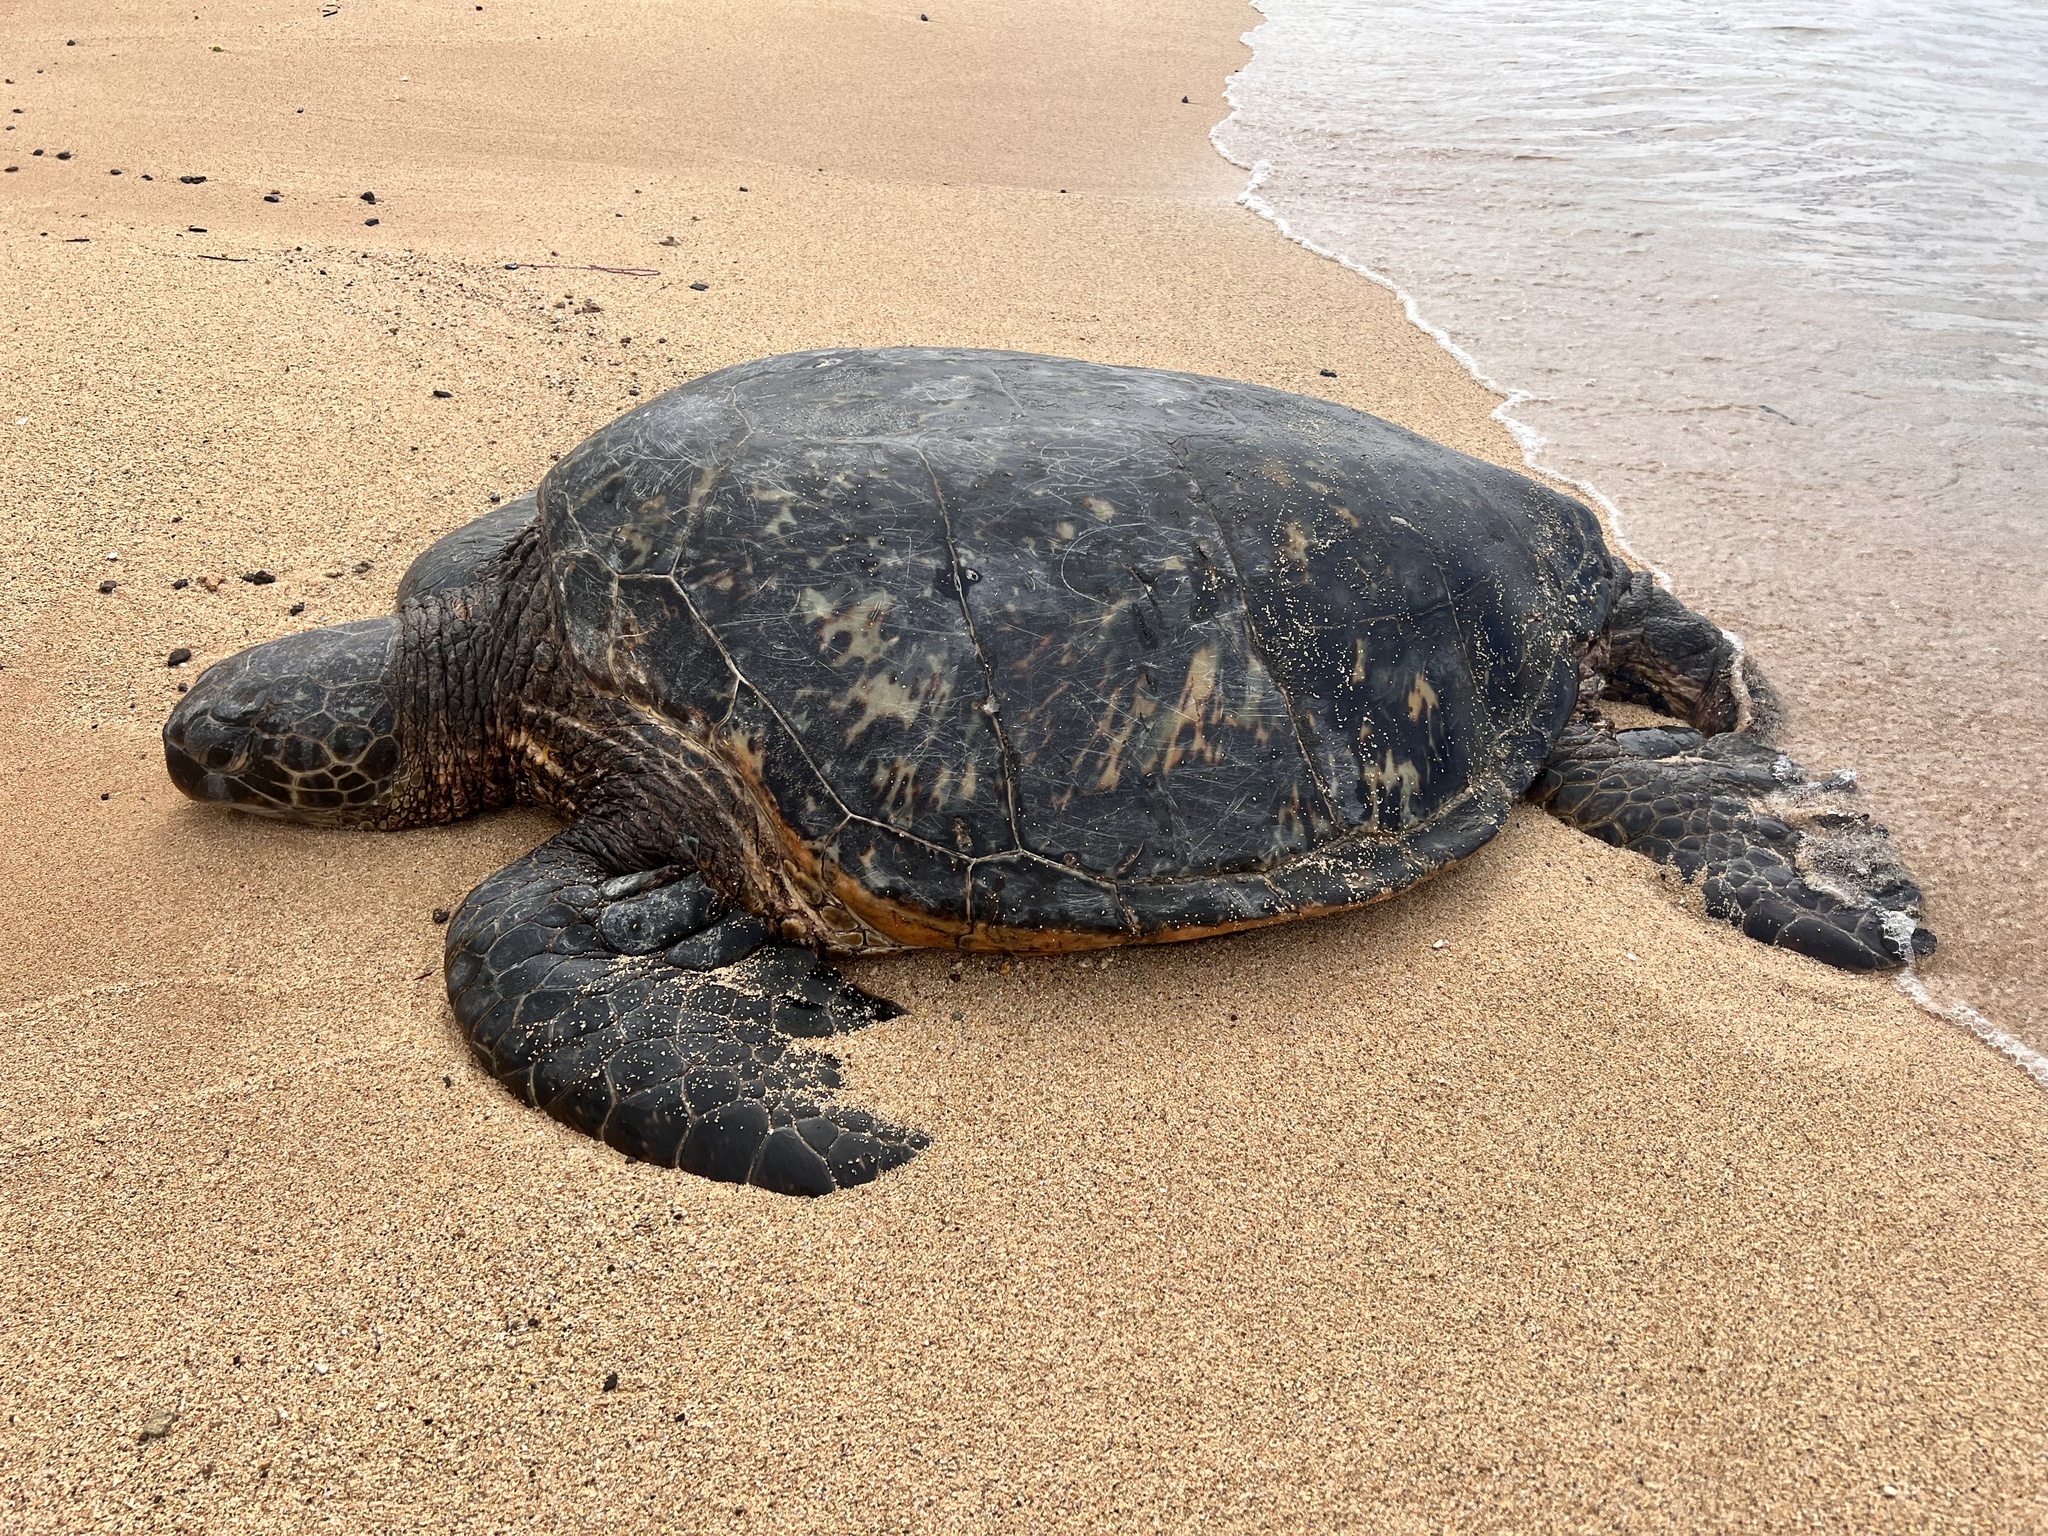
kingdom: Animalia
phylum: Chordata
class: Testudines
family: Cheloniidae
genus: Chelonia
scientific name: Chelonia mydas
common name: Green turtle
